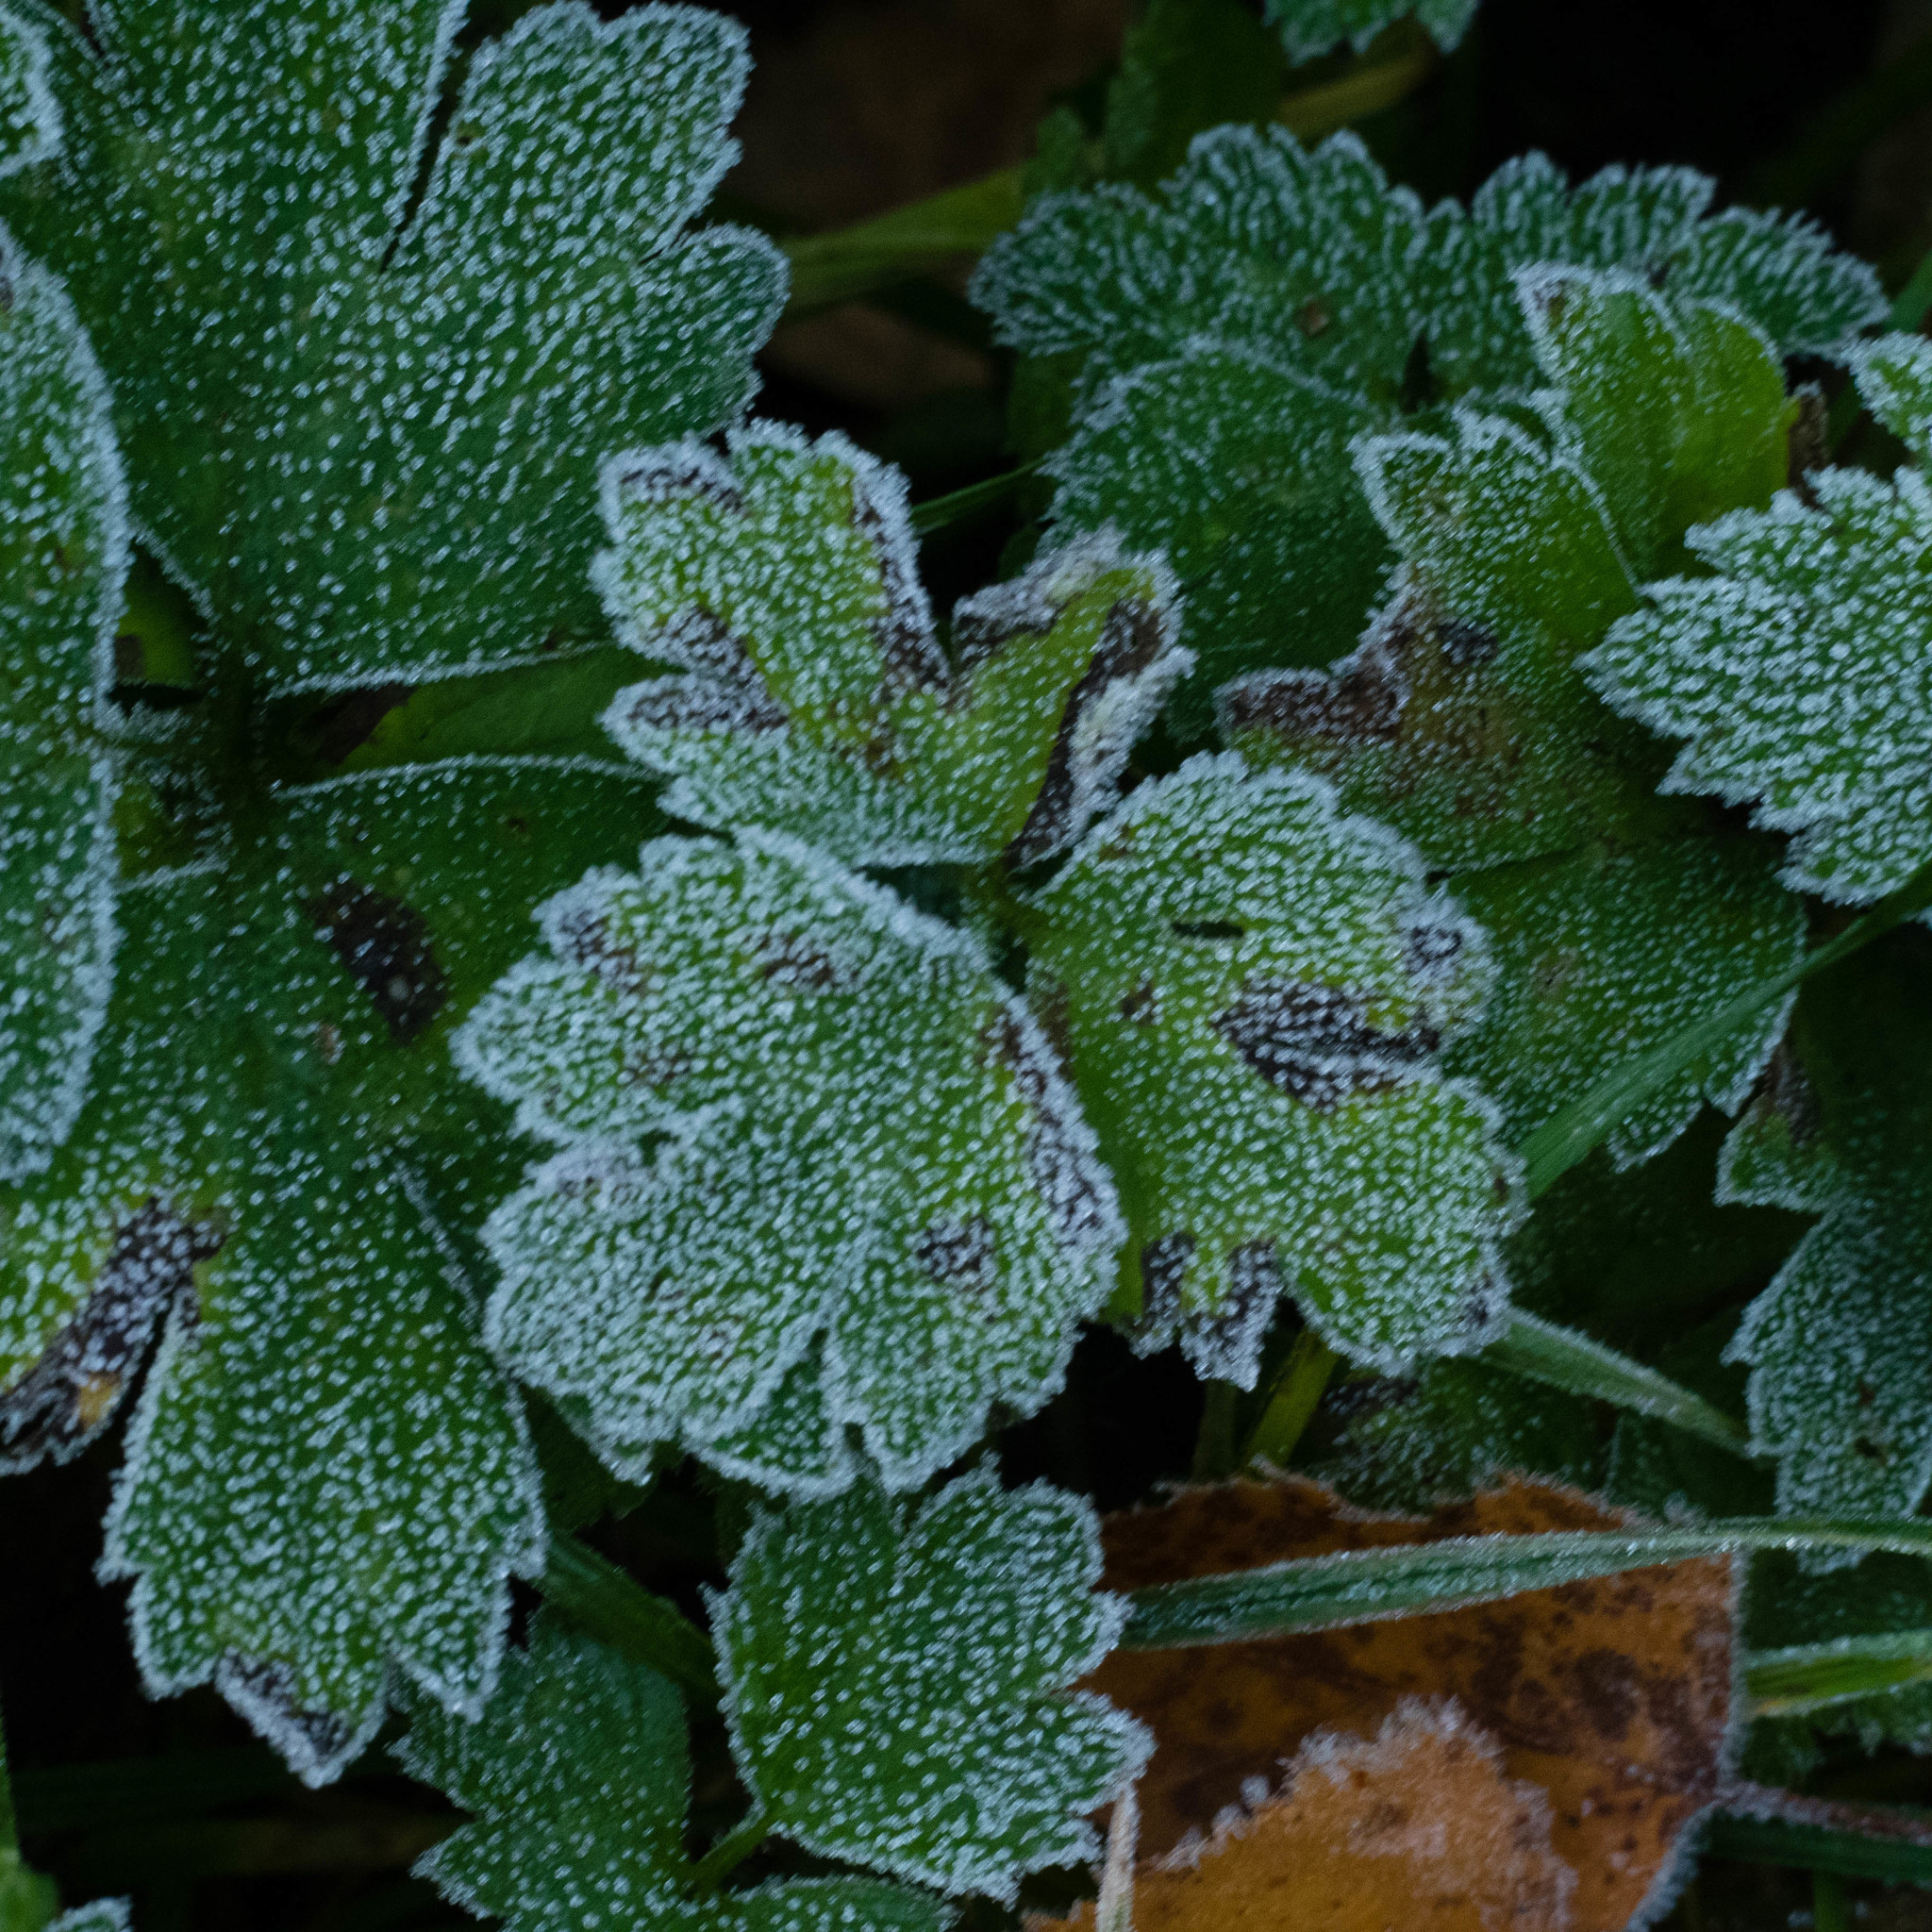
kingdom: Plantae
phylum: Tracheophyta
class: Magnoliopsida
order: Ranunculales
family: Ranunculaceae
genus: Ranunculus
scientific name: Ranunculus repens
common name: Creeping buttercup
